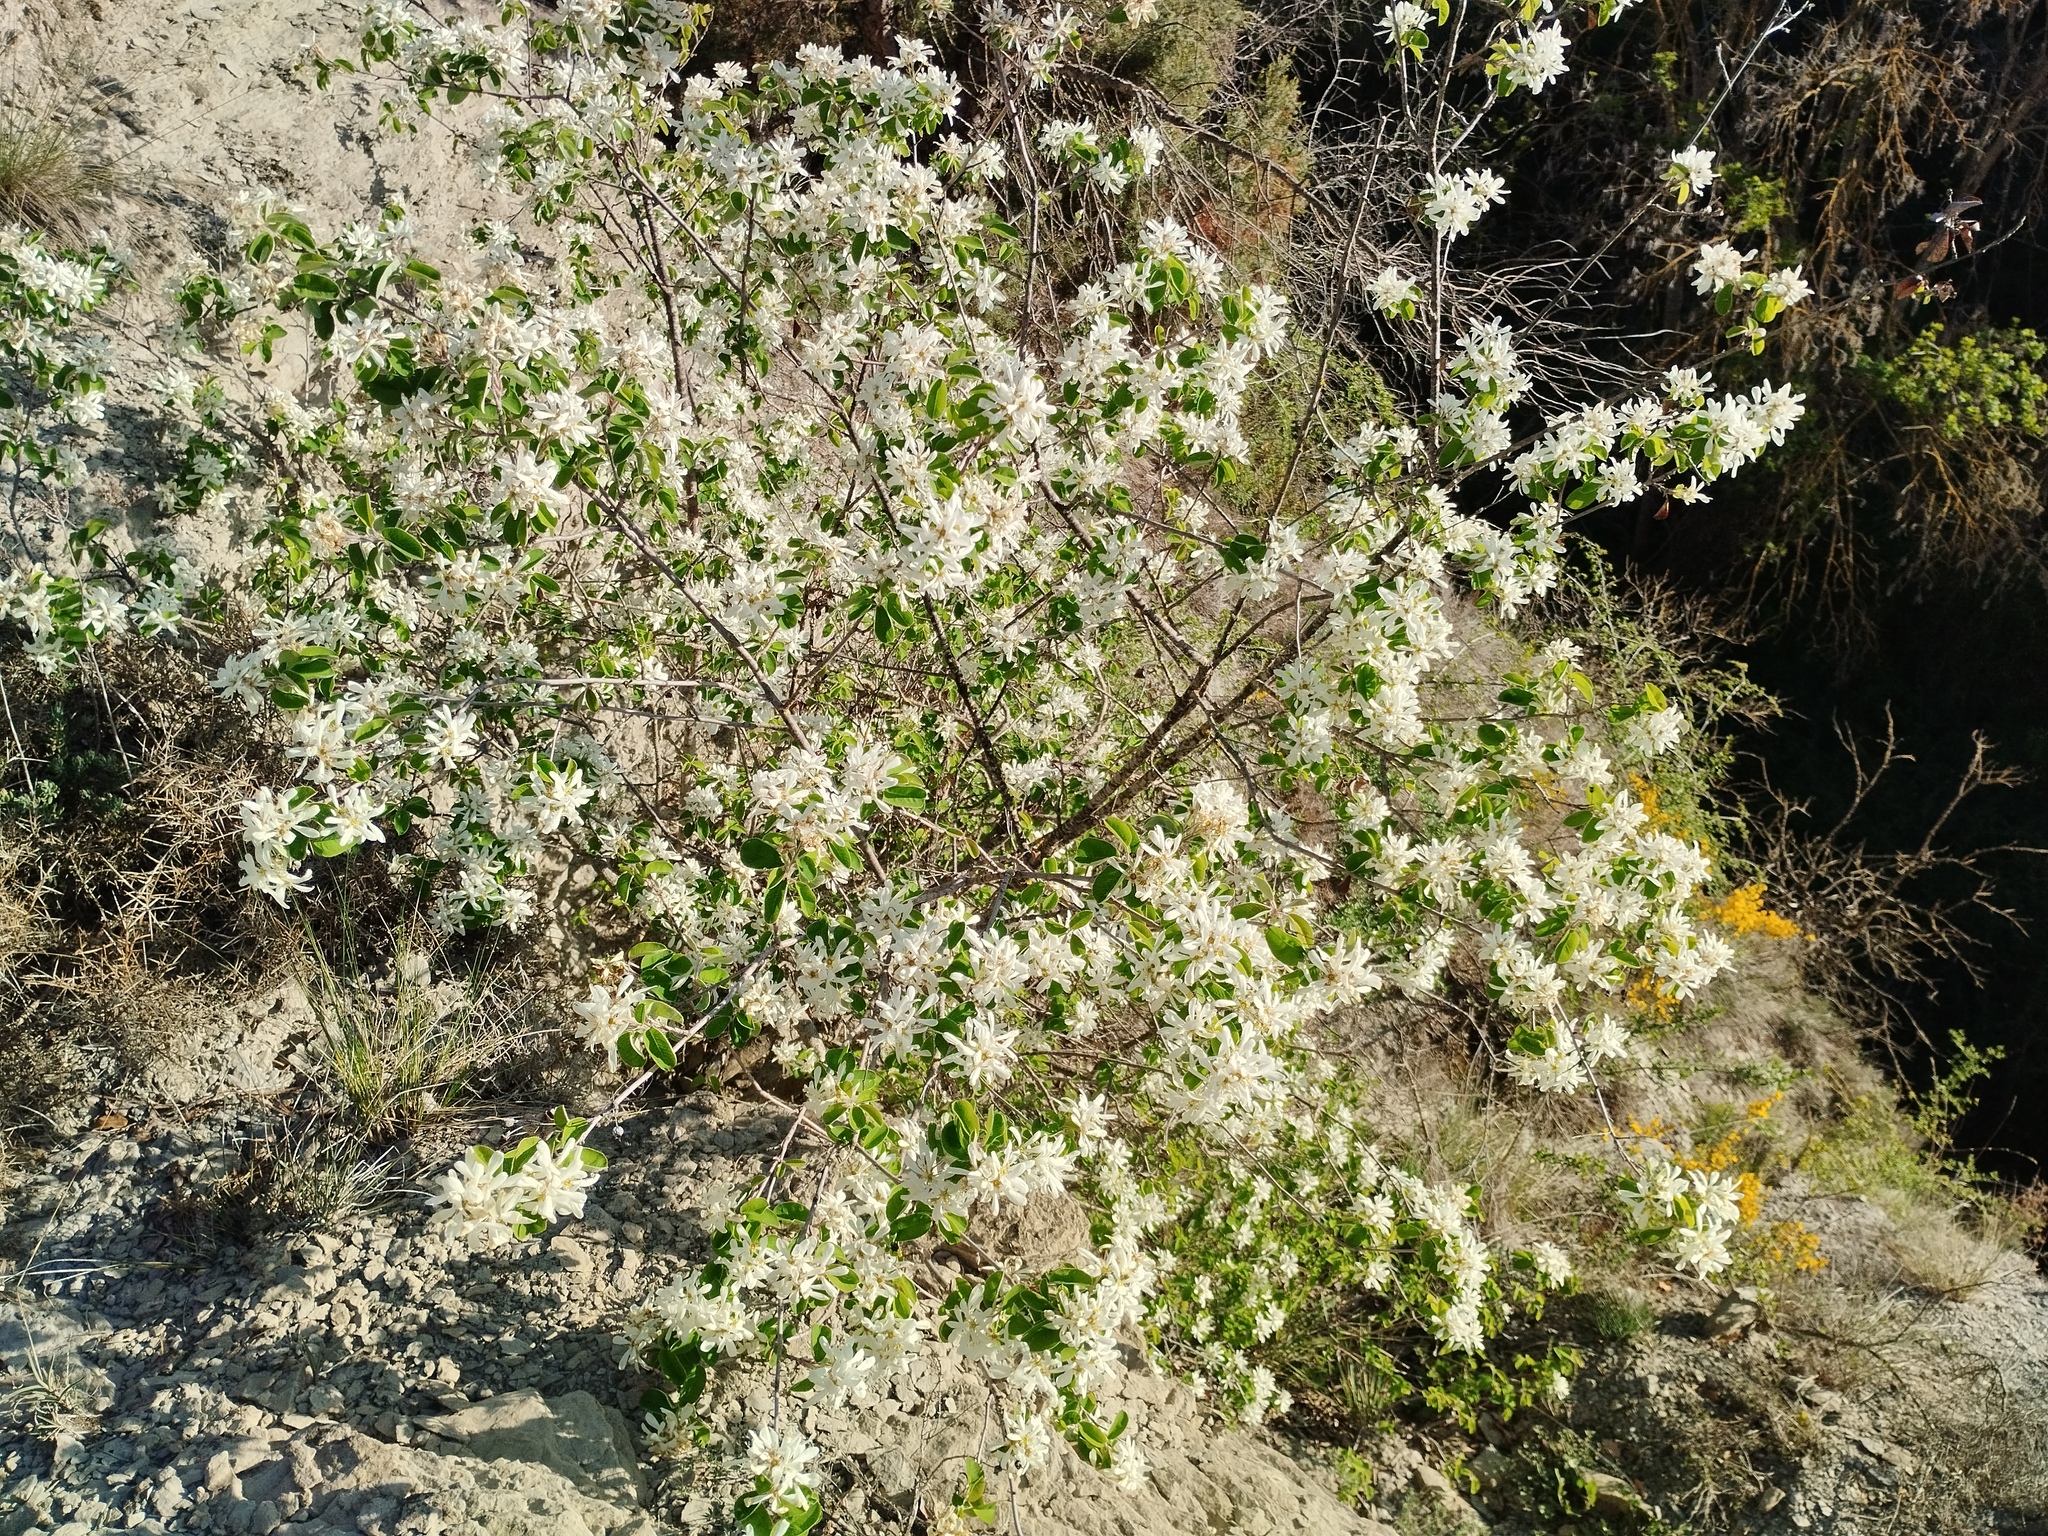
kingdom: Plantae
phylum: Tracheophyta
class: Magnoliopsida
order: Rosales
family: Rosaceae
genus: Amelanchier
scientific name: Amelanchier ovalis
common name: Serviceberry
